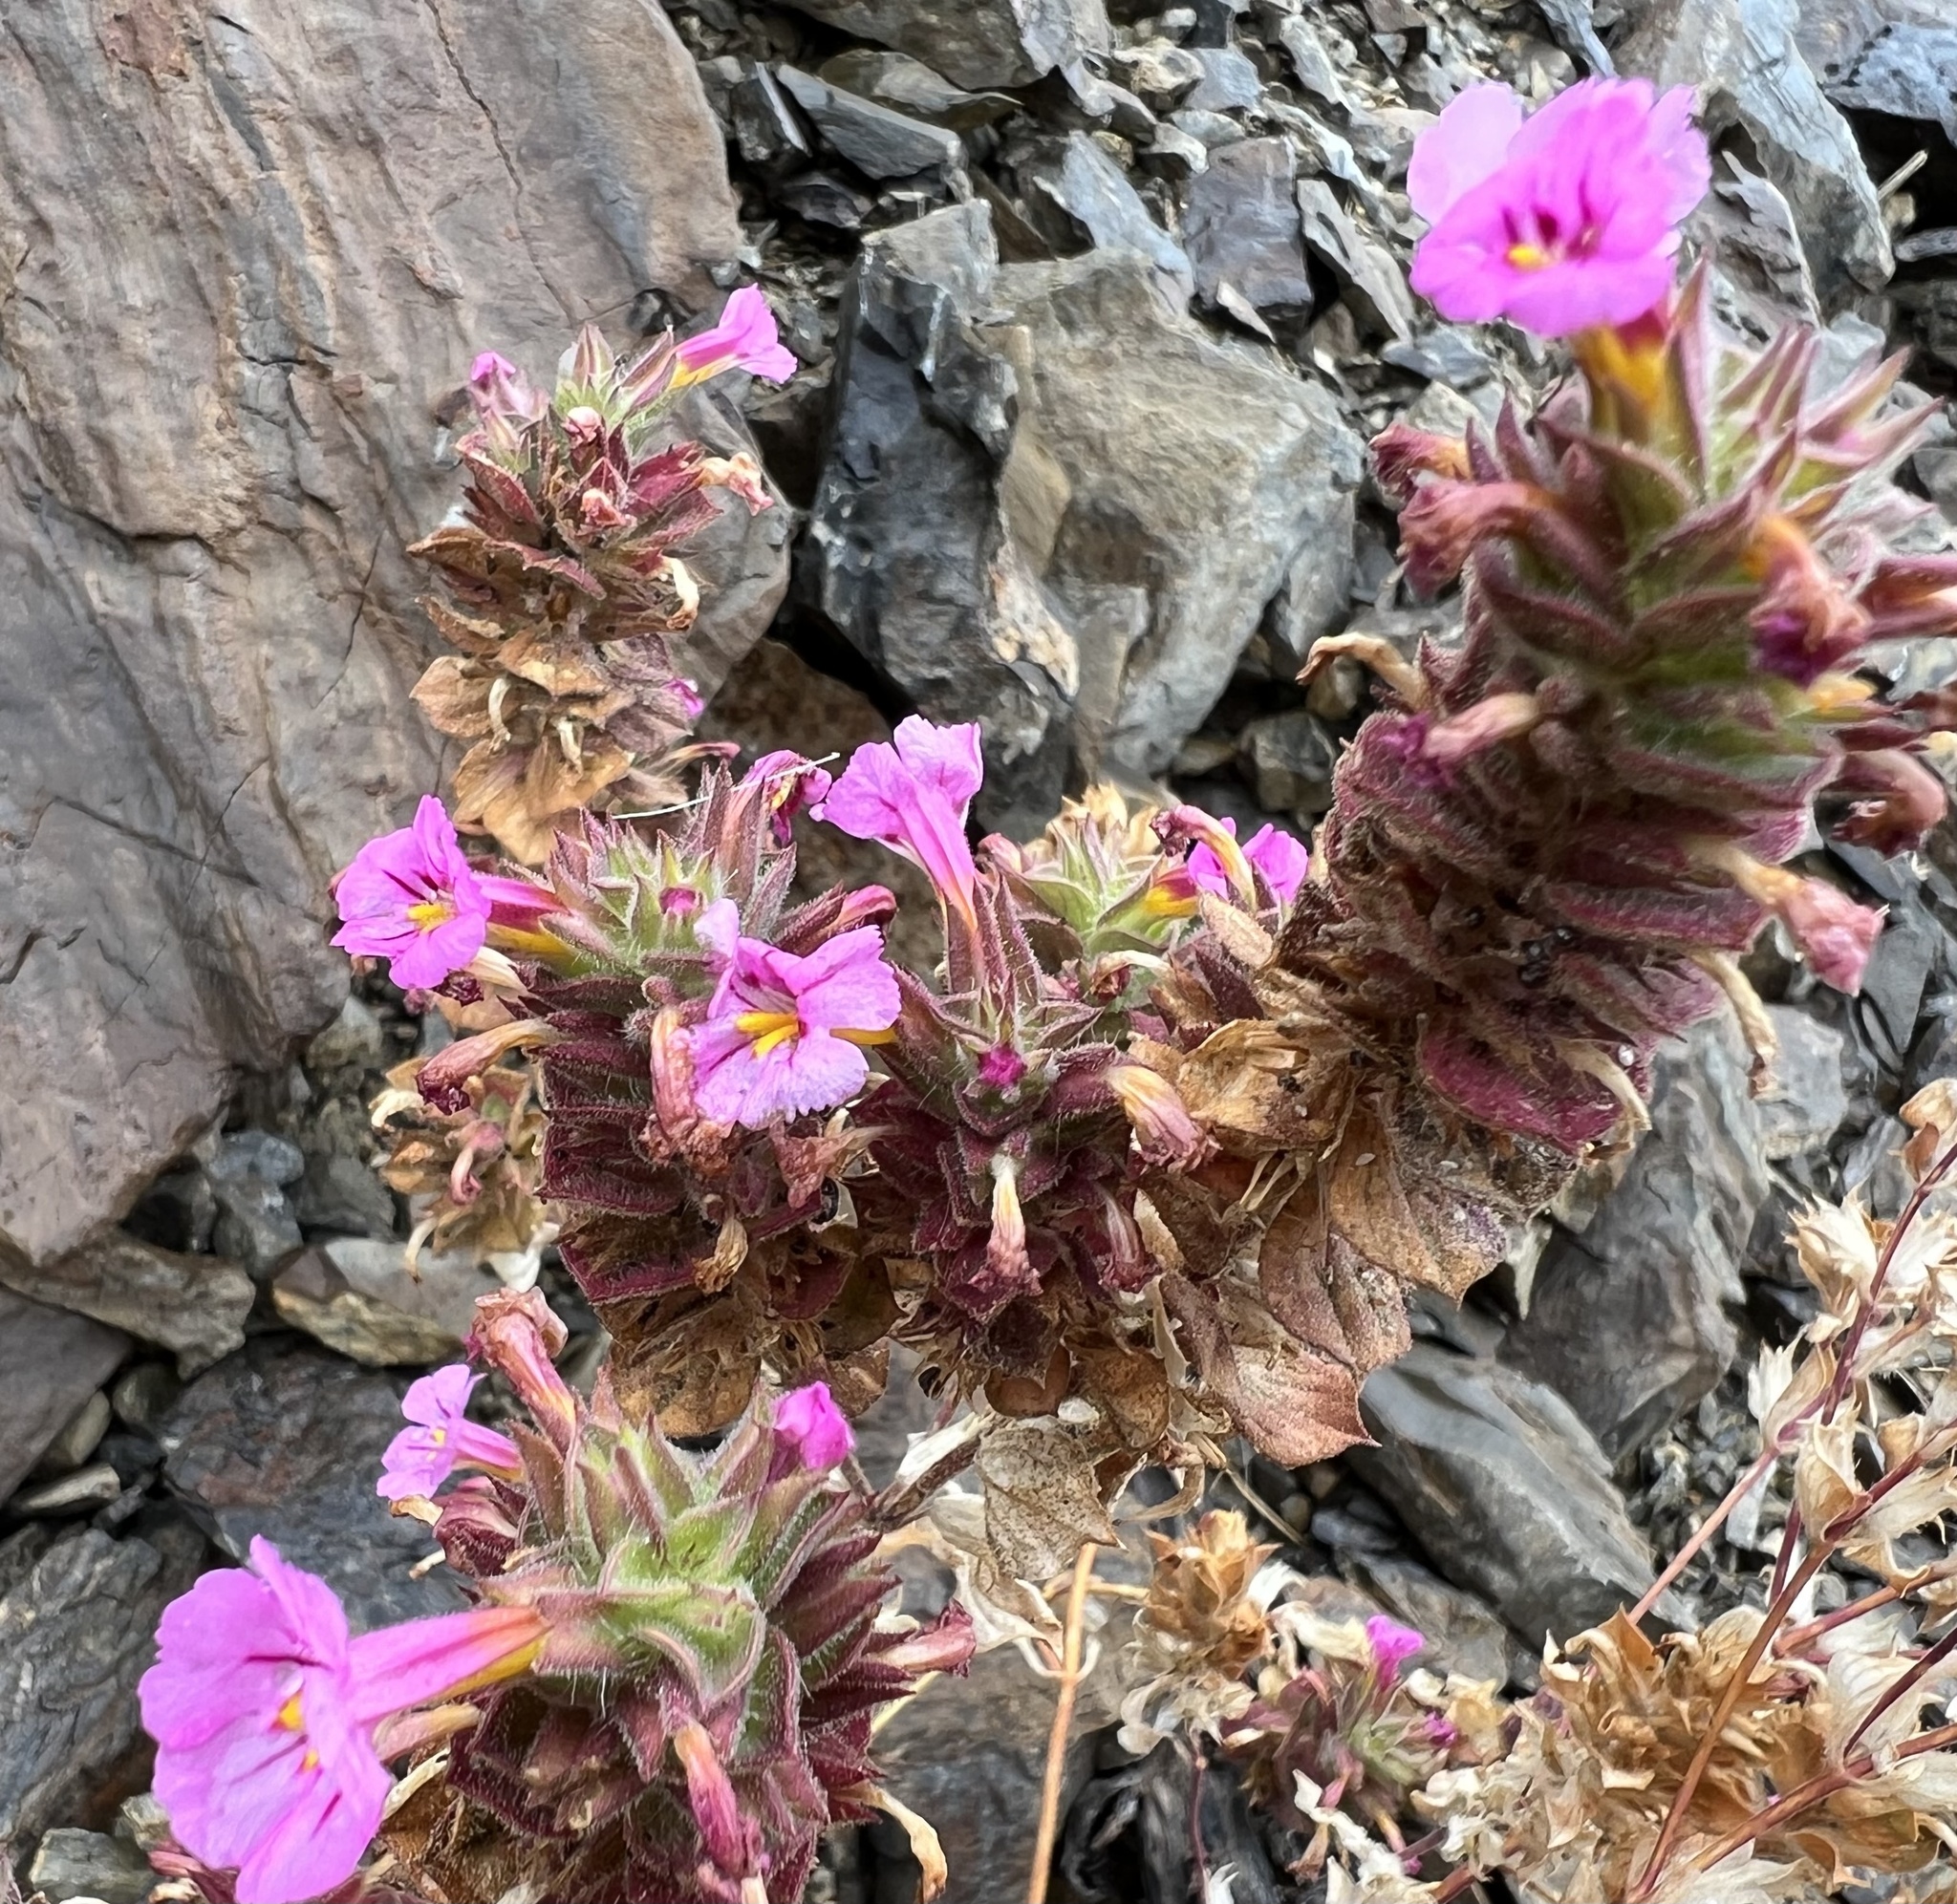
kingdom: Plantae
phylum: Tracheophyta
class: Magnoliopsida
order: Lamiales
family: Phrymaceae
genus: Diplacus
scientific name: Diplacus bigelovii
